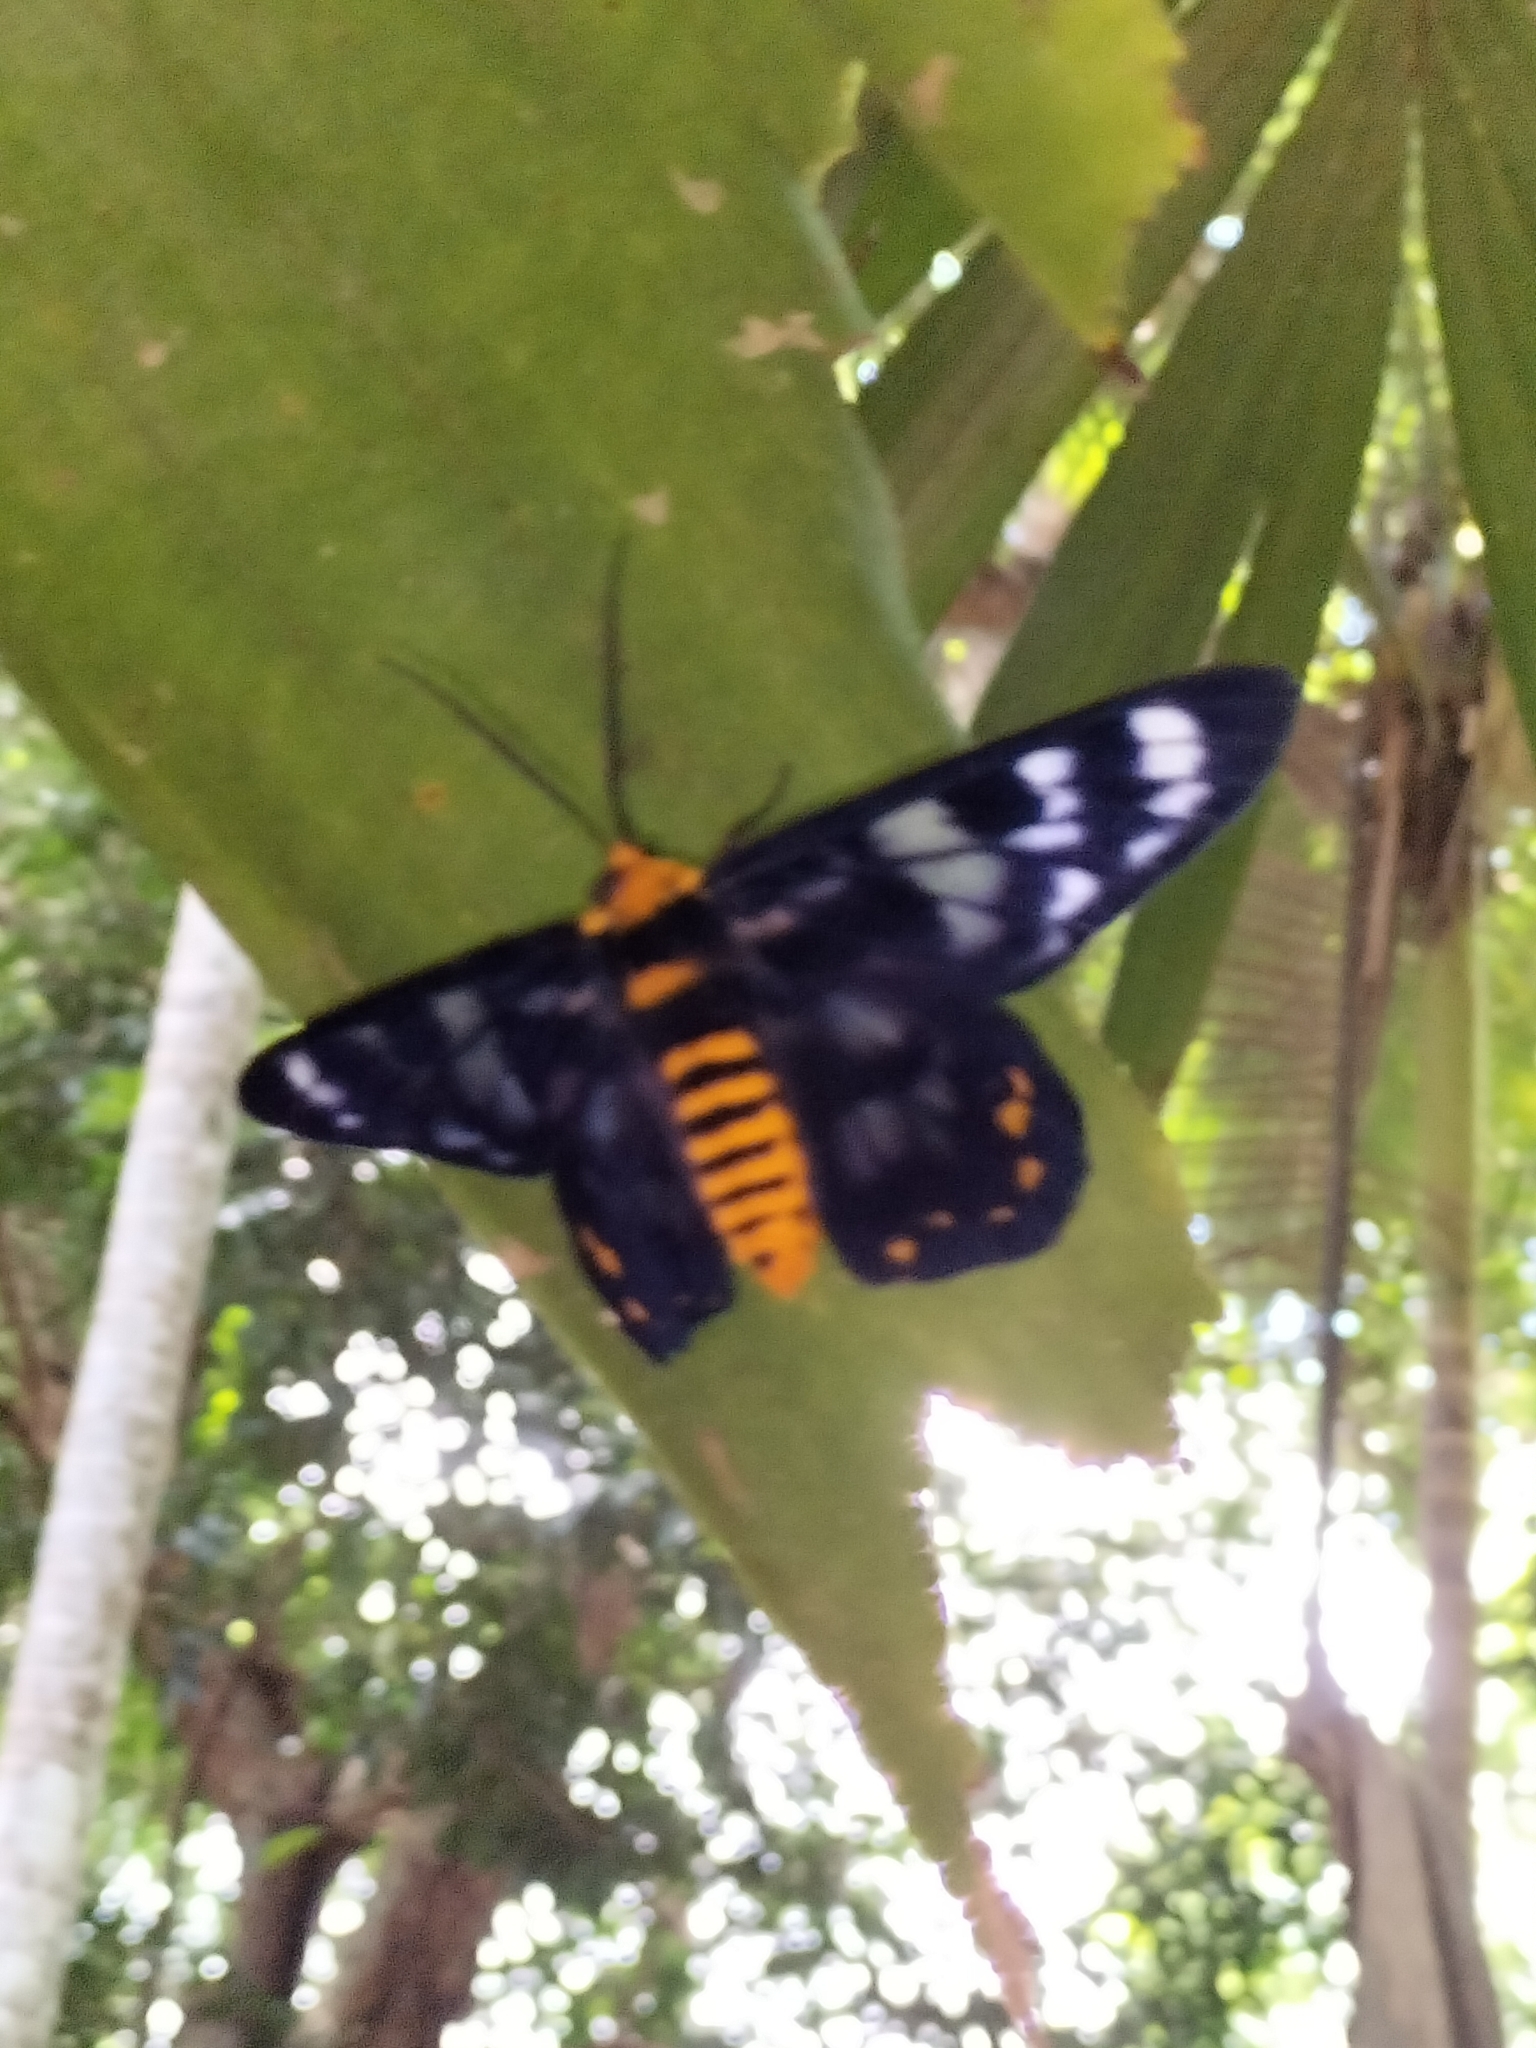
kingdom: Animalia
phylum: Arthropoda
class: Insecta
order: Lepidoptera
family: Geometridae
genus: Dysphania
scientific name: Dysphania numana
